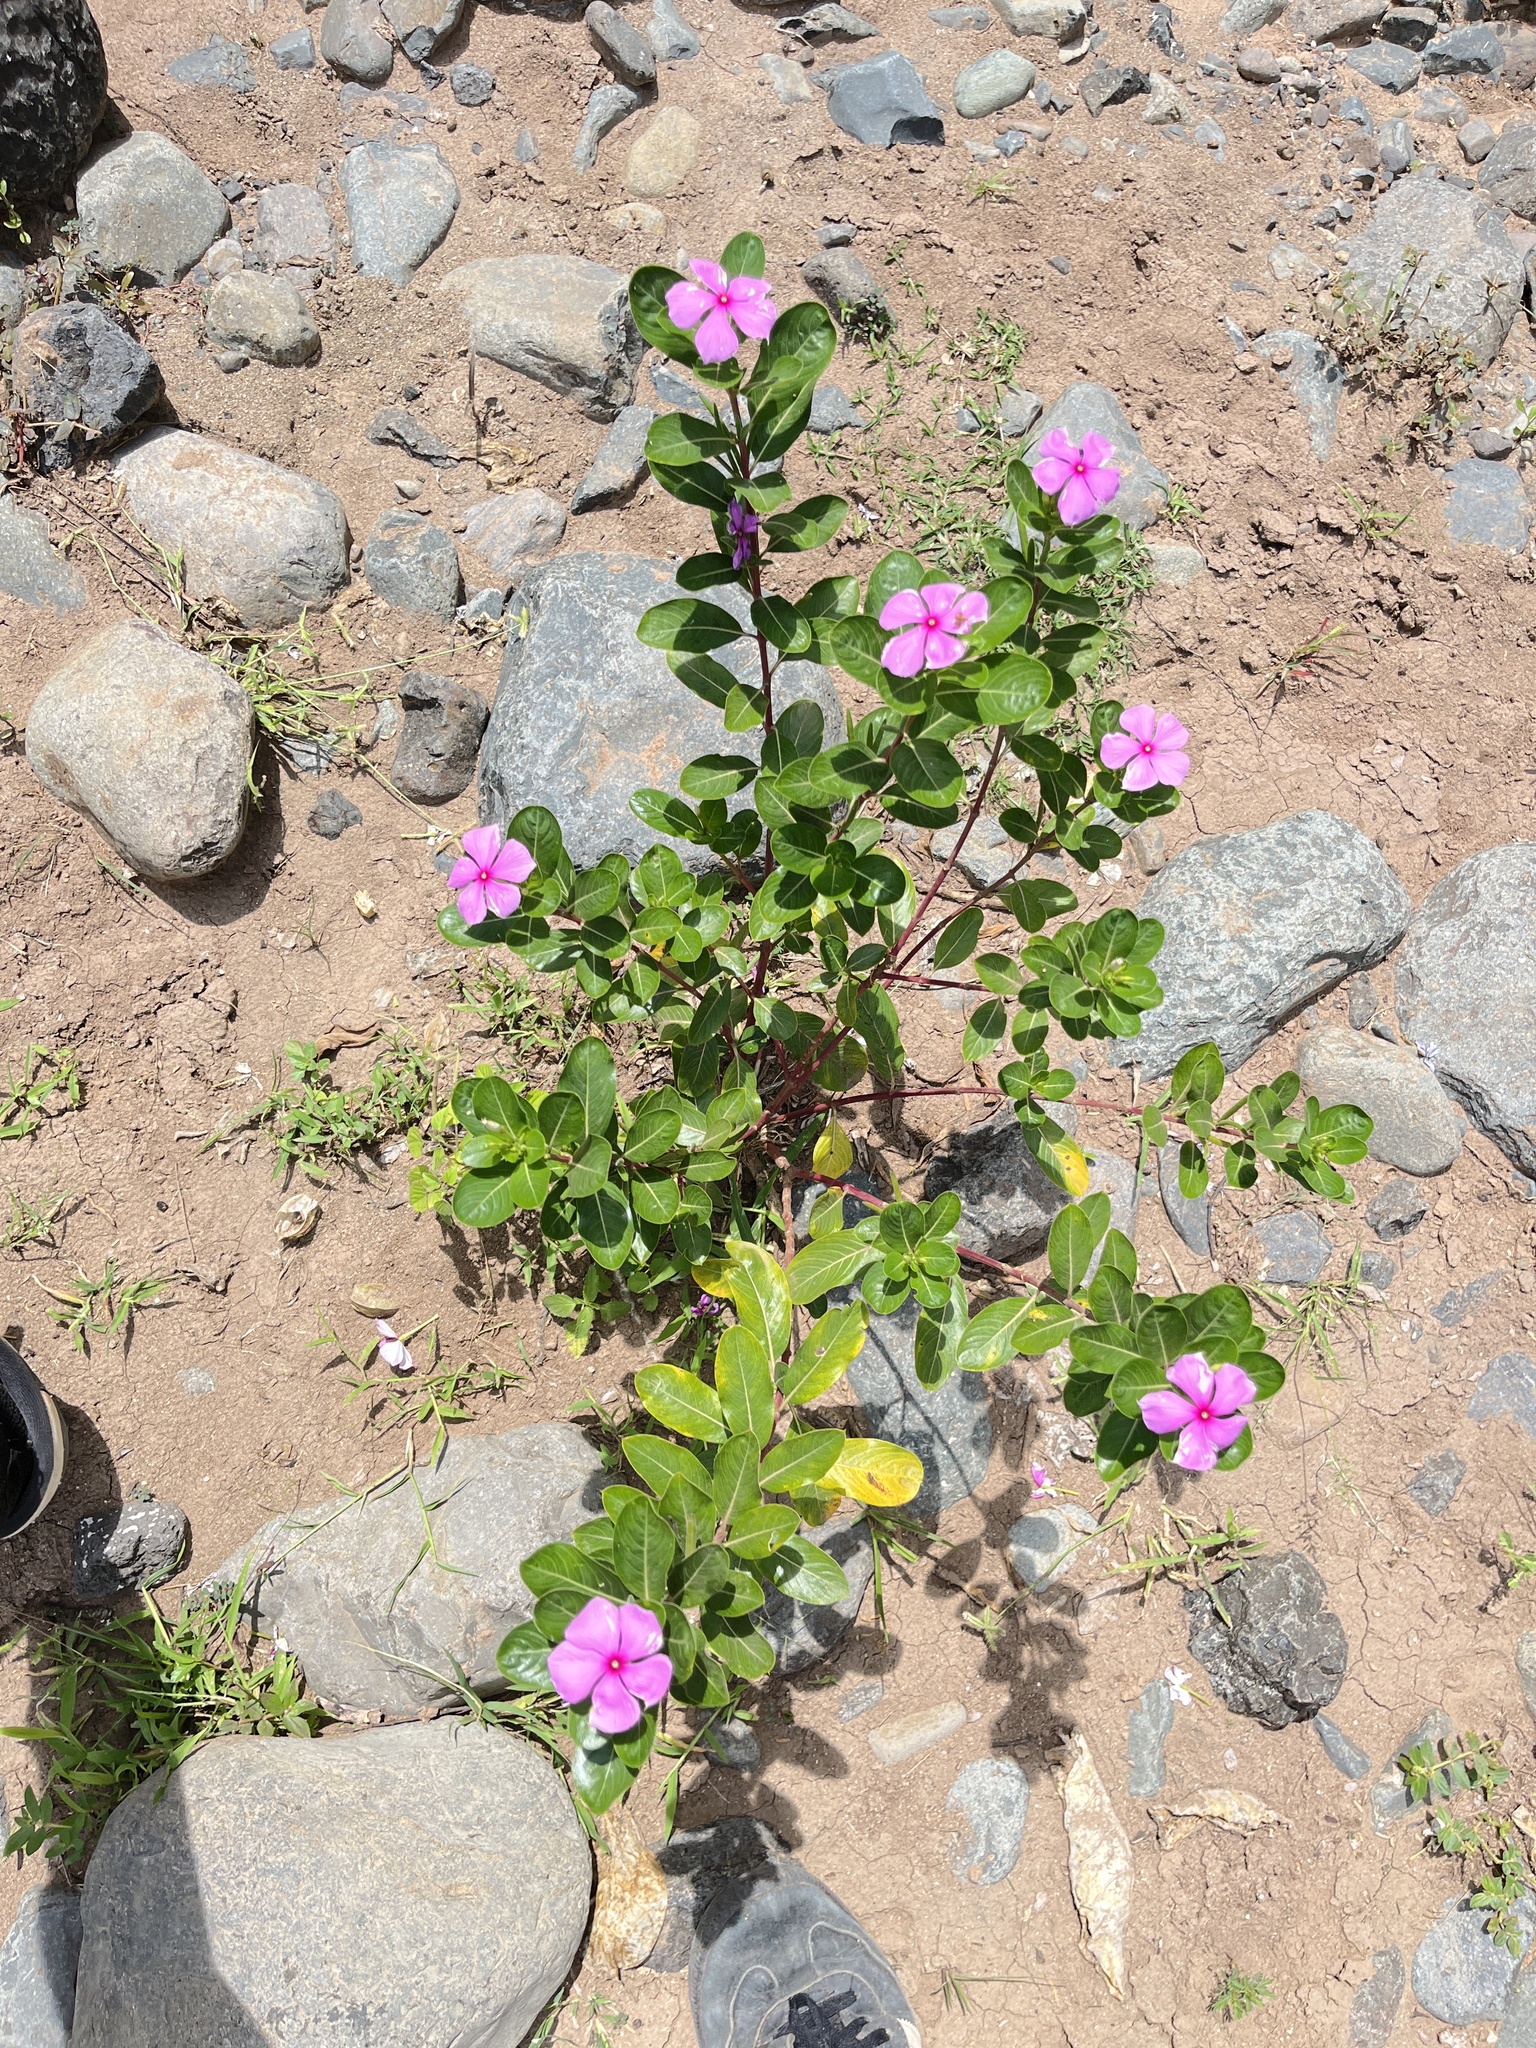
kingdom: Plantae
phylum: Tracheophyta
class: Magnoliopsida
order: Gentianales
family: Apocynaceae
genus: Catharanthus
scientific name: Catharanthus roseus
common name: Madagascar periwinkle
